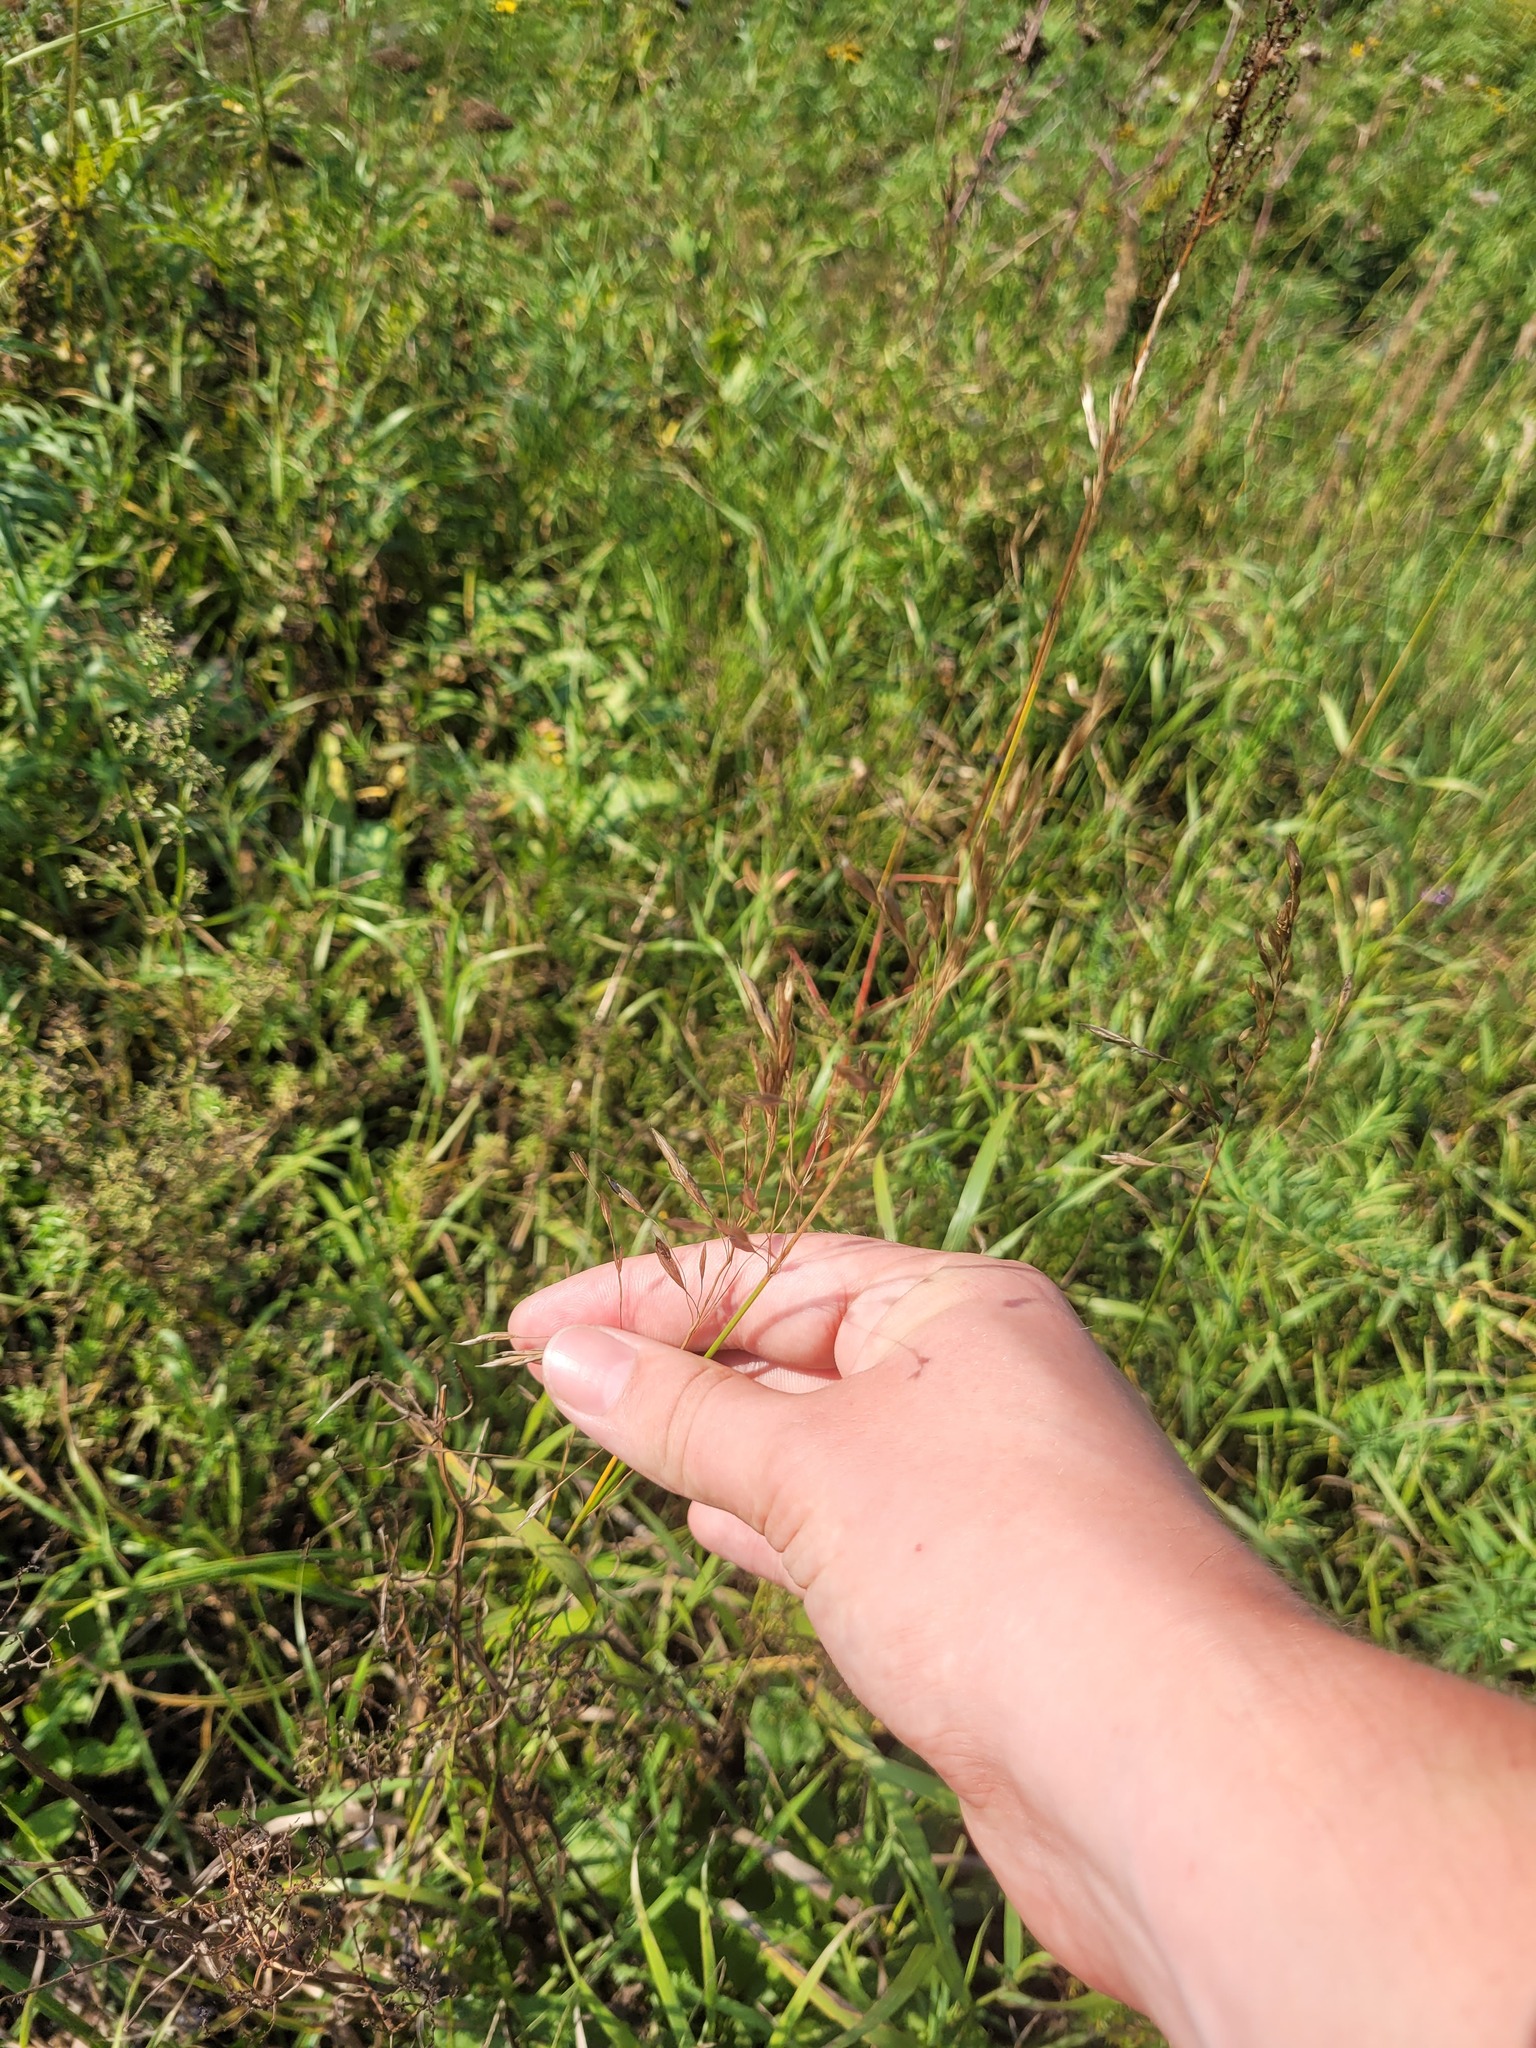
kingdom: Plantae
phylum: Tracheophyta
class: Liliopsida
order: Poales
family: Poaceae
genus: Arrhenatherum
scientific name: Arrhenatherum elatius
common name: Tall oatgrass
